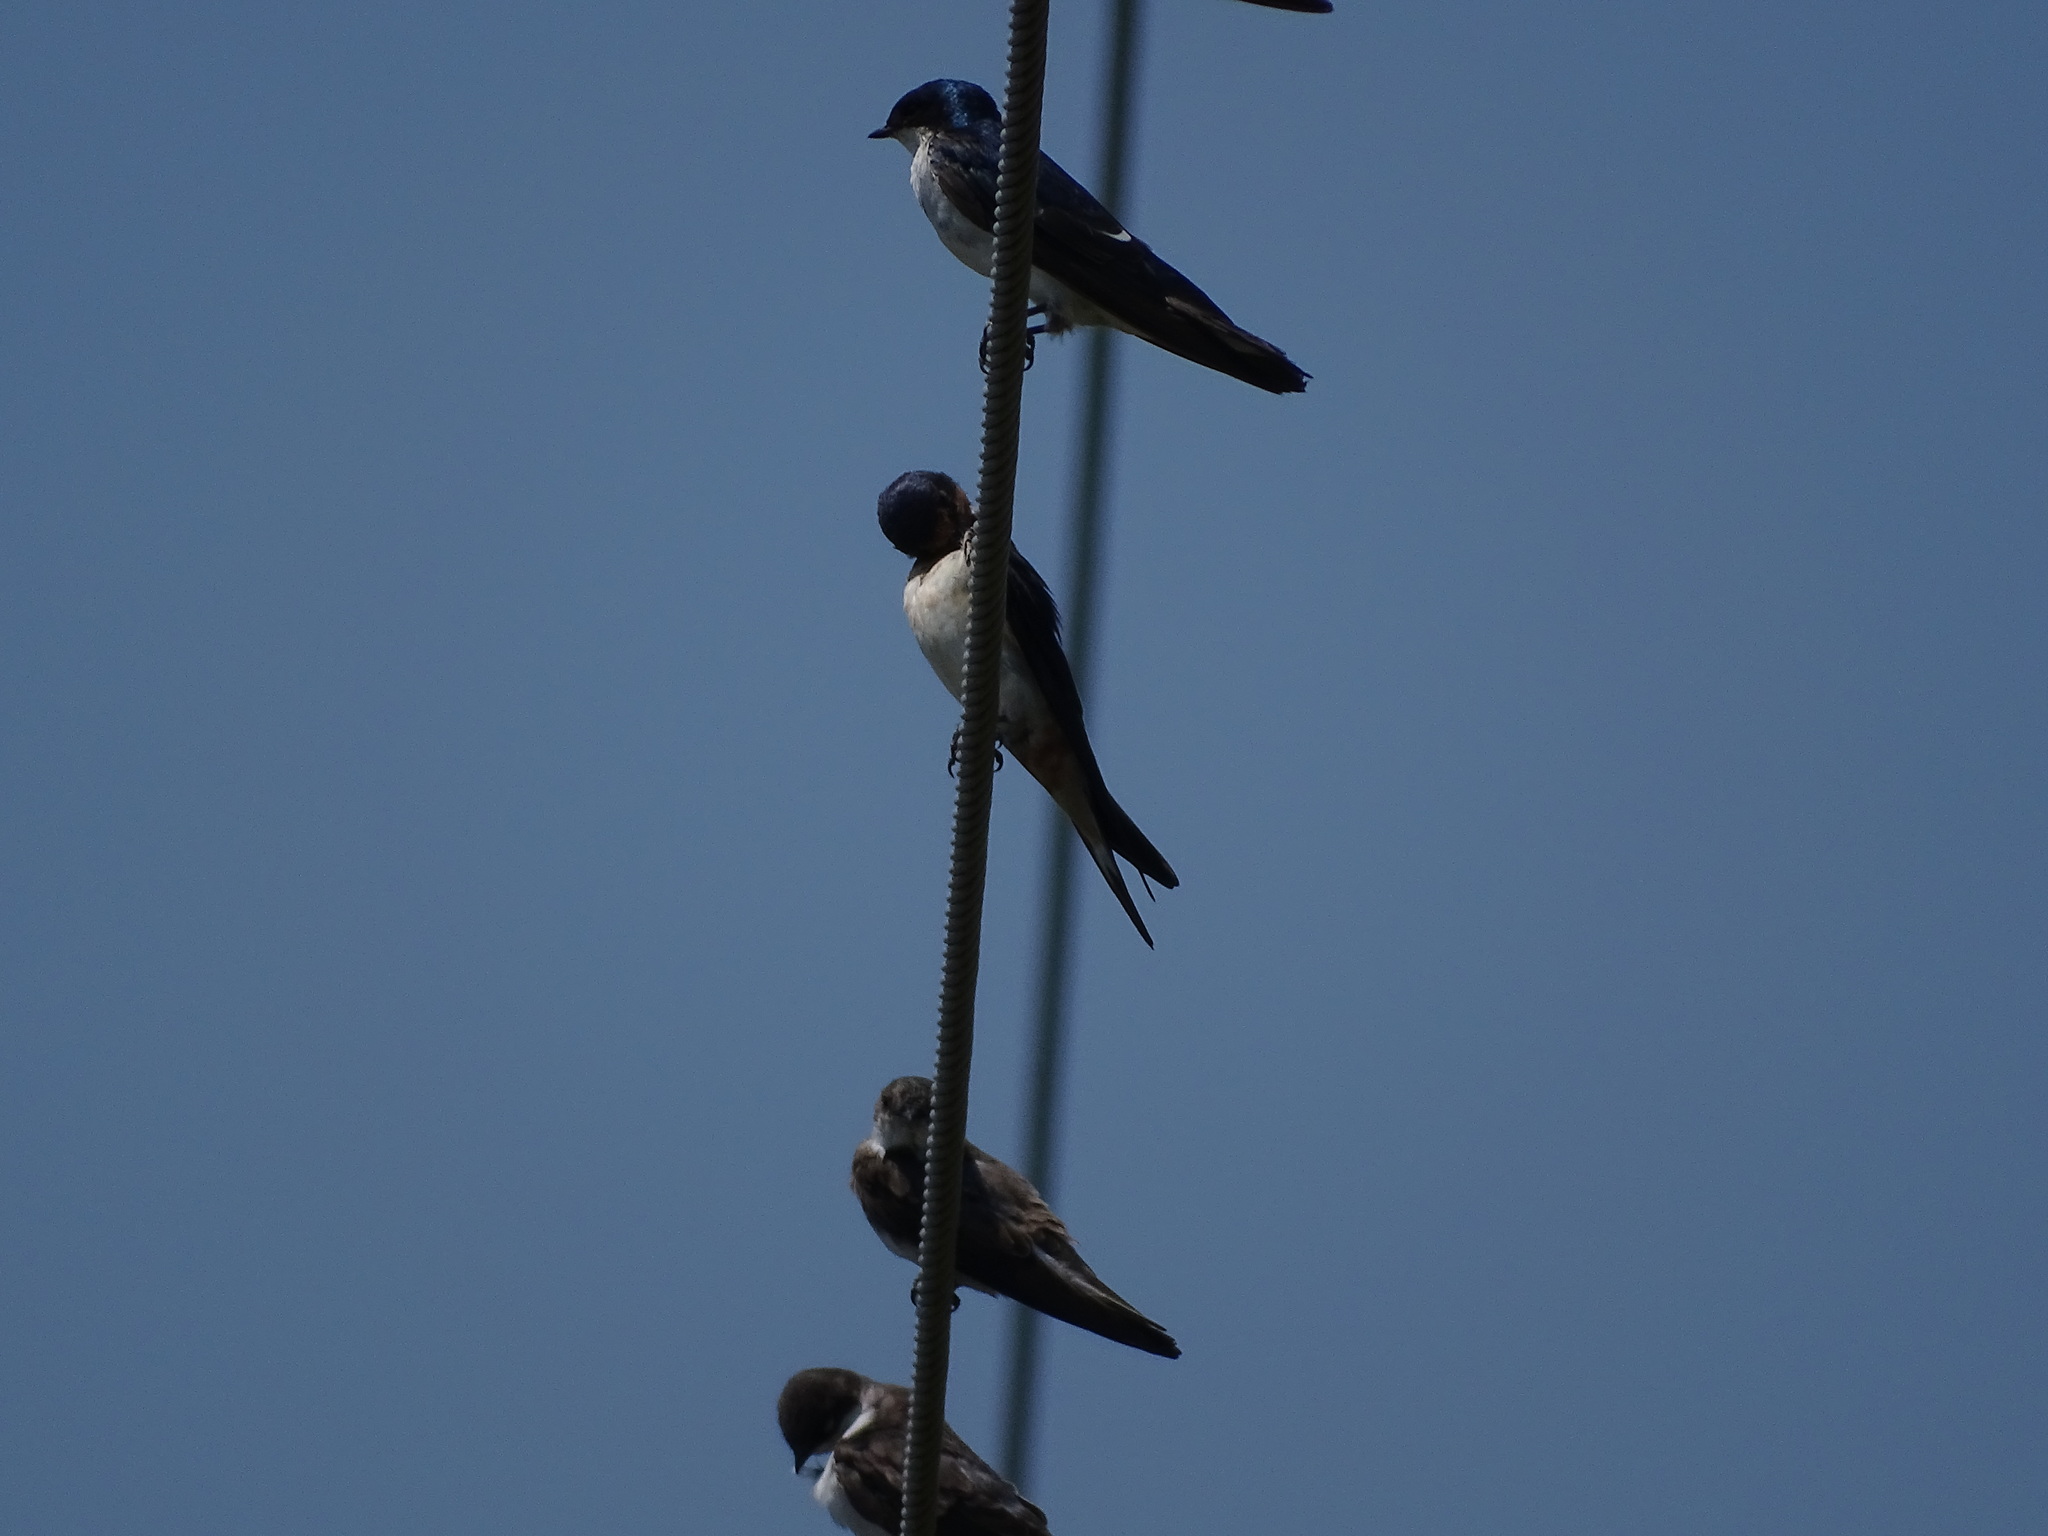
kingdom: Animalia
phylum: Chordata
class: Aves
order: Passeriformes
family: Hirundinidae
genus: Hirundo
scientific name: Hirundo rustica
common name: Barn swallow
